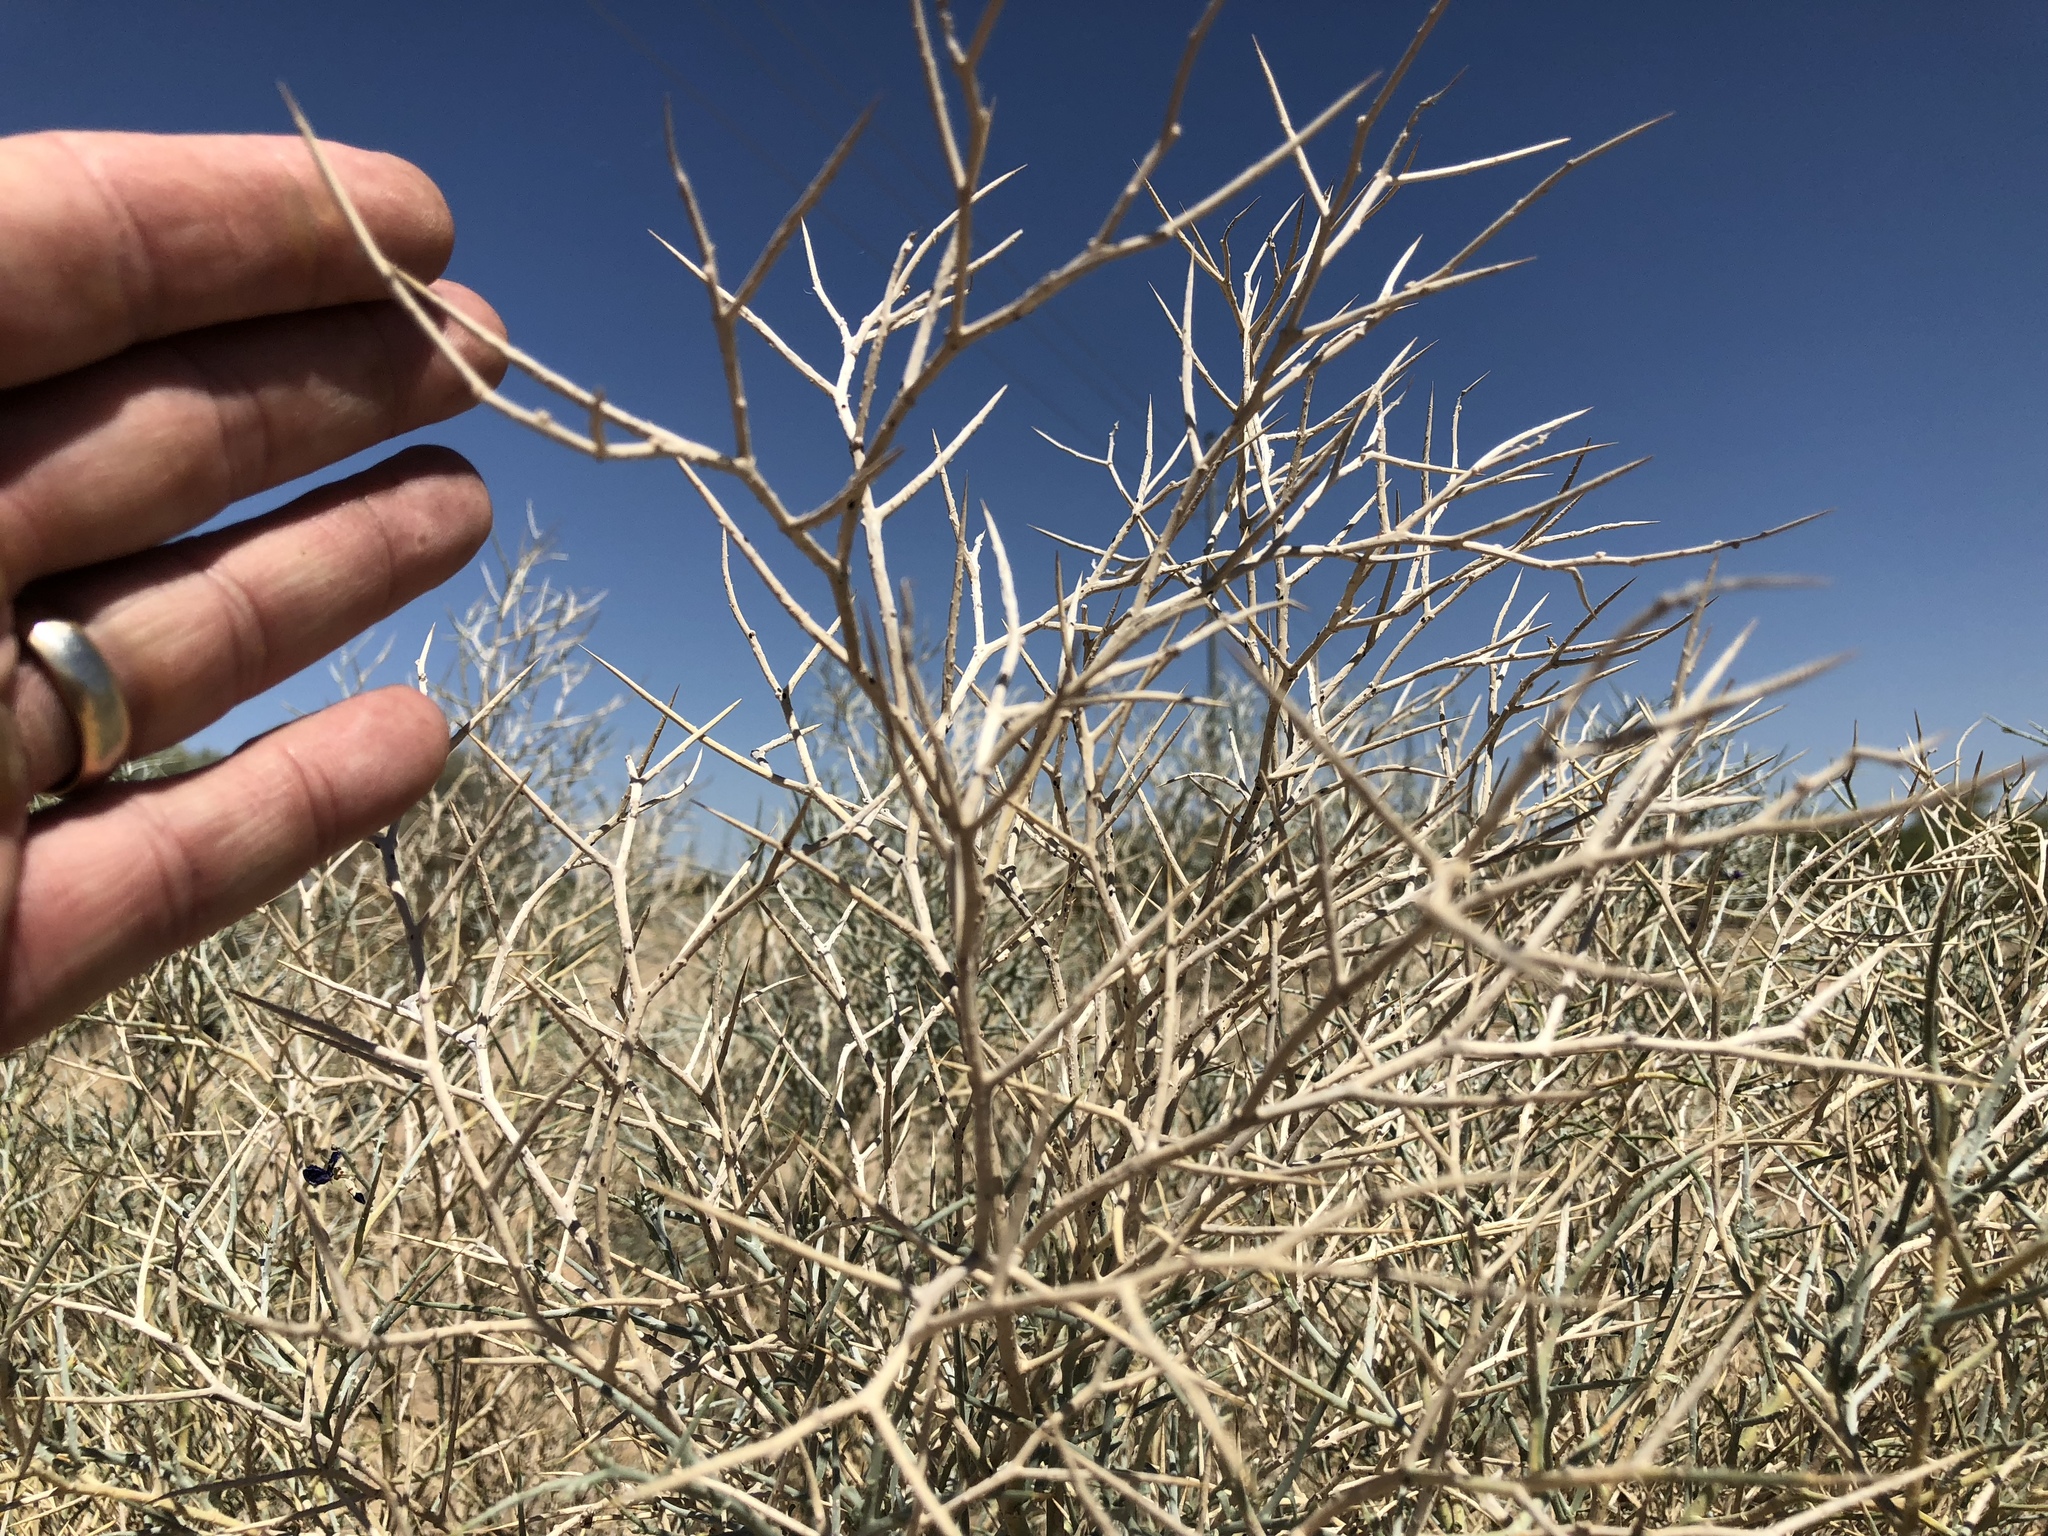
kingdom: Plantae
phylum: Tracheophyta
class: Magnoliopsida
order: Fabales
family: Fabaceae
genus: Psorothamnus
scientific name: Psorothamnus spinosus
